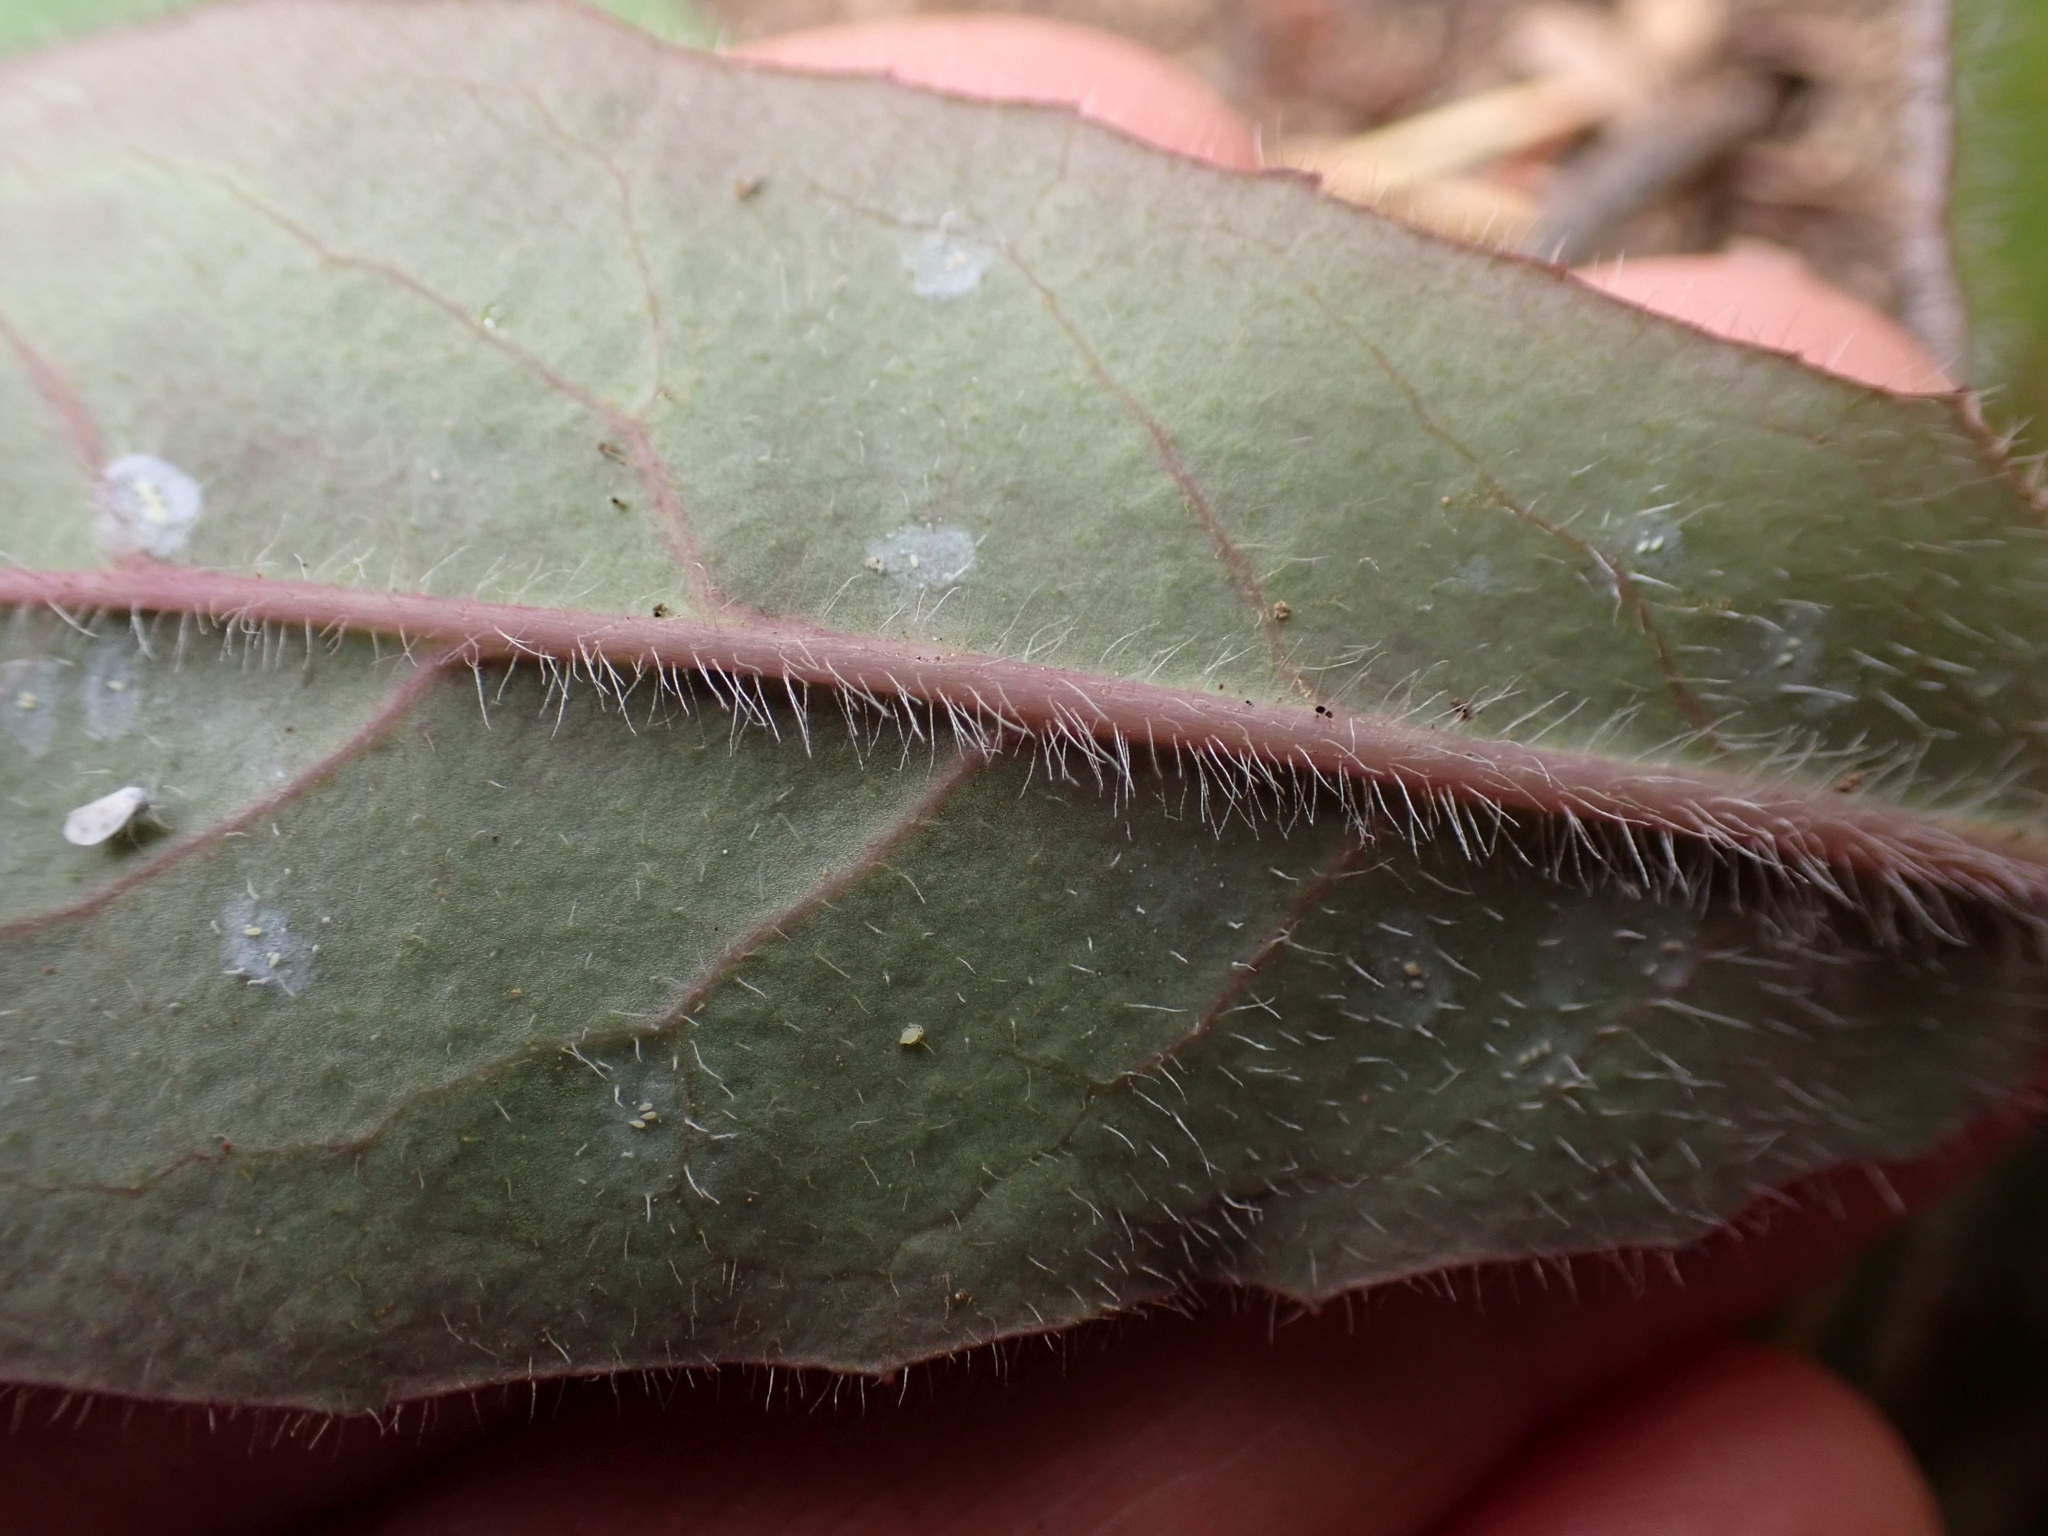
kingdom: Plantae
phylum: Tracheophyta
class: Magnoliopsida
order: Asterales
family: Asteraceae
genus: Hieracium
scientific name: Hieracium albiflorum
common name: White hawkweed
